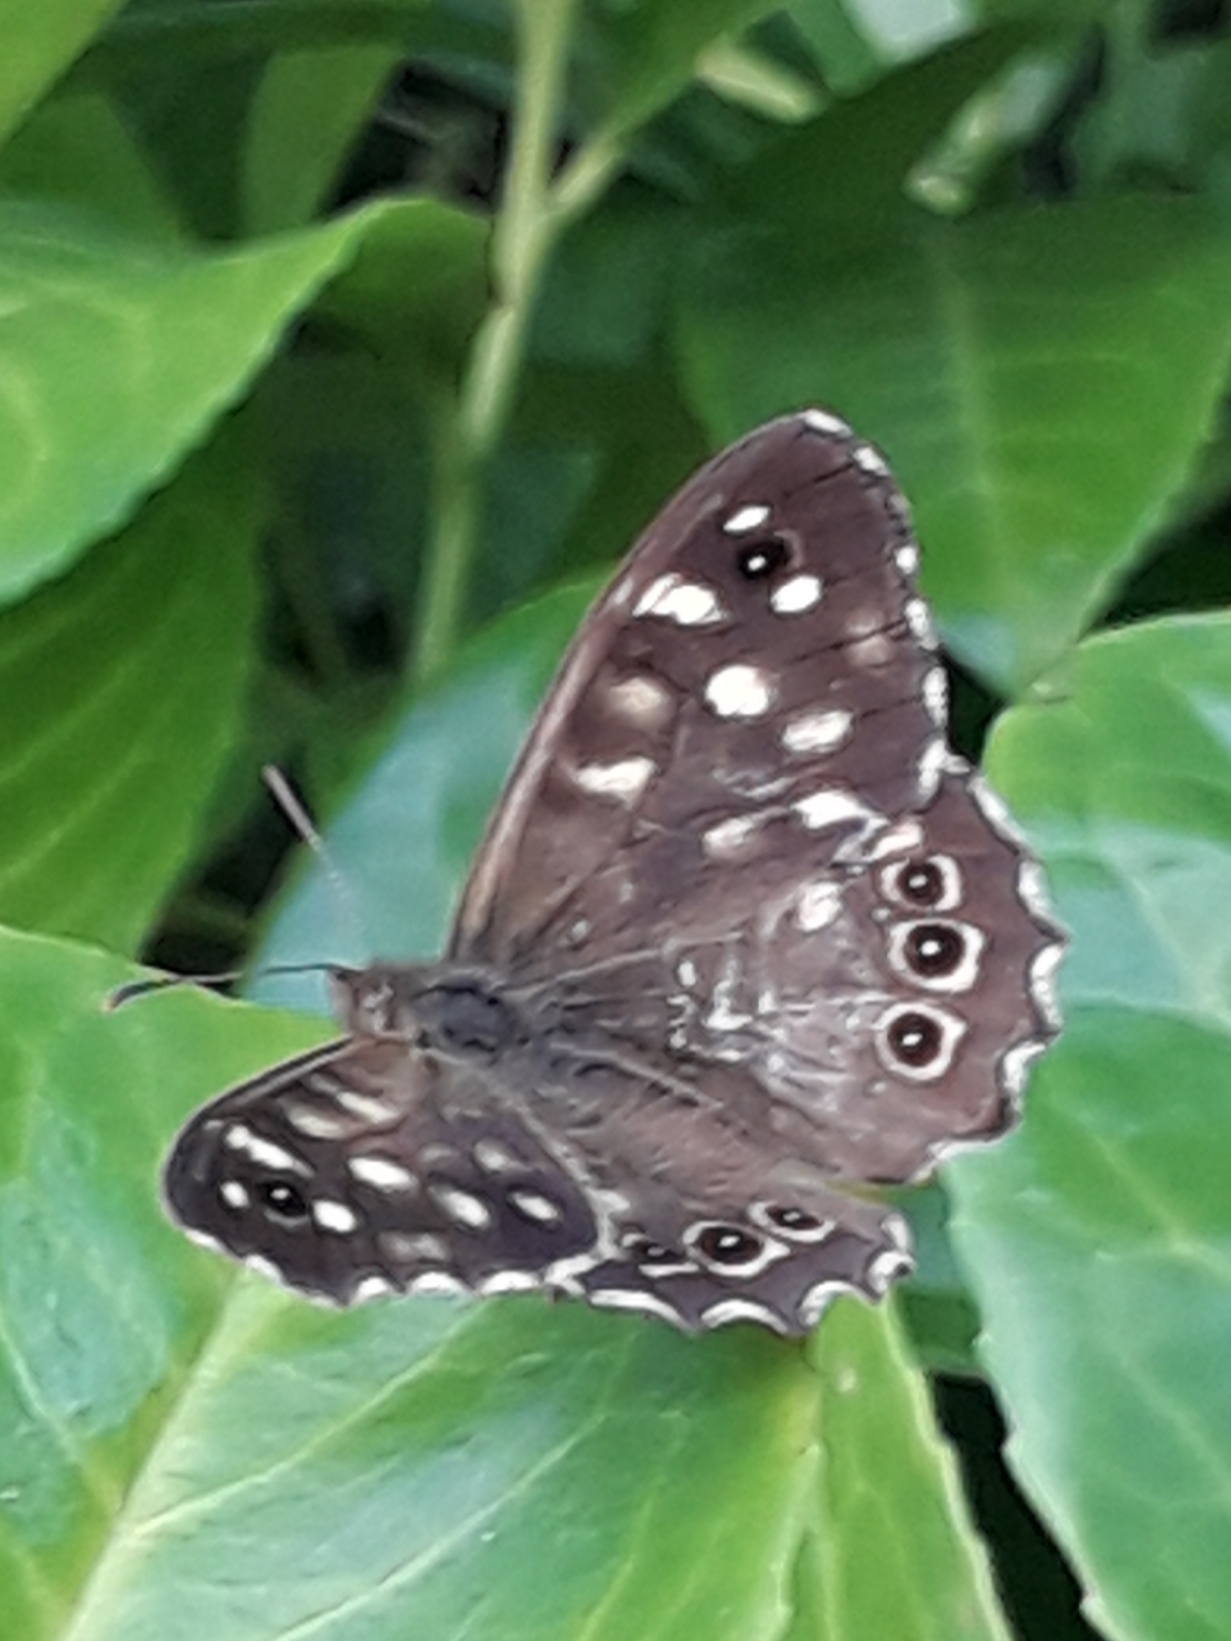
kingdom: Animalia
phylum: Arthropoda
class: Insecta
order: Lepidoptera
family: Nymphalidae
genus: Pararge
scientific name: Pararge aegeria
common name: Speckled wood
